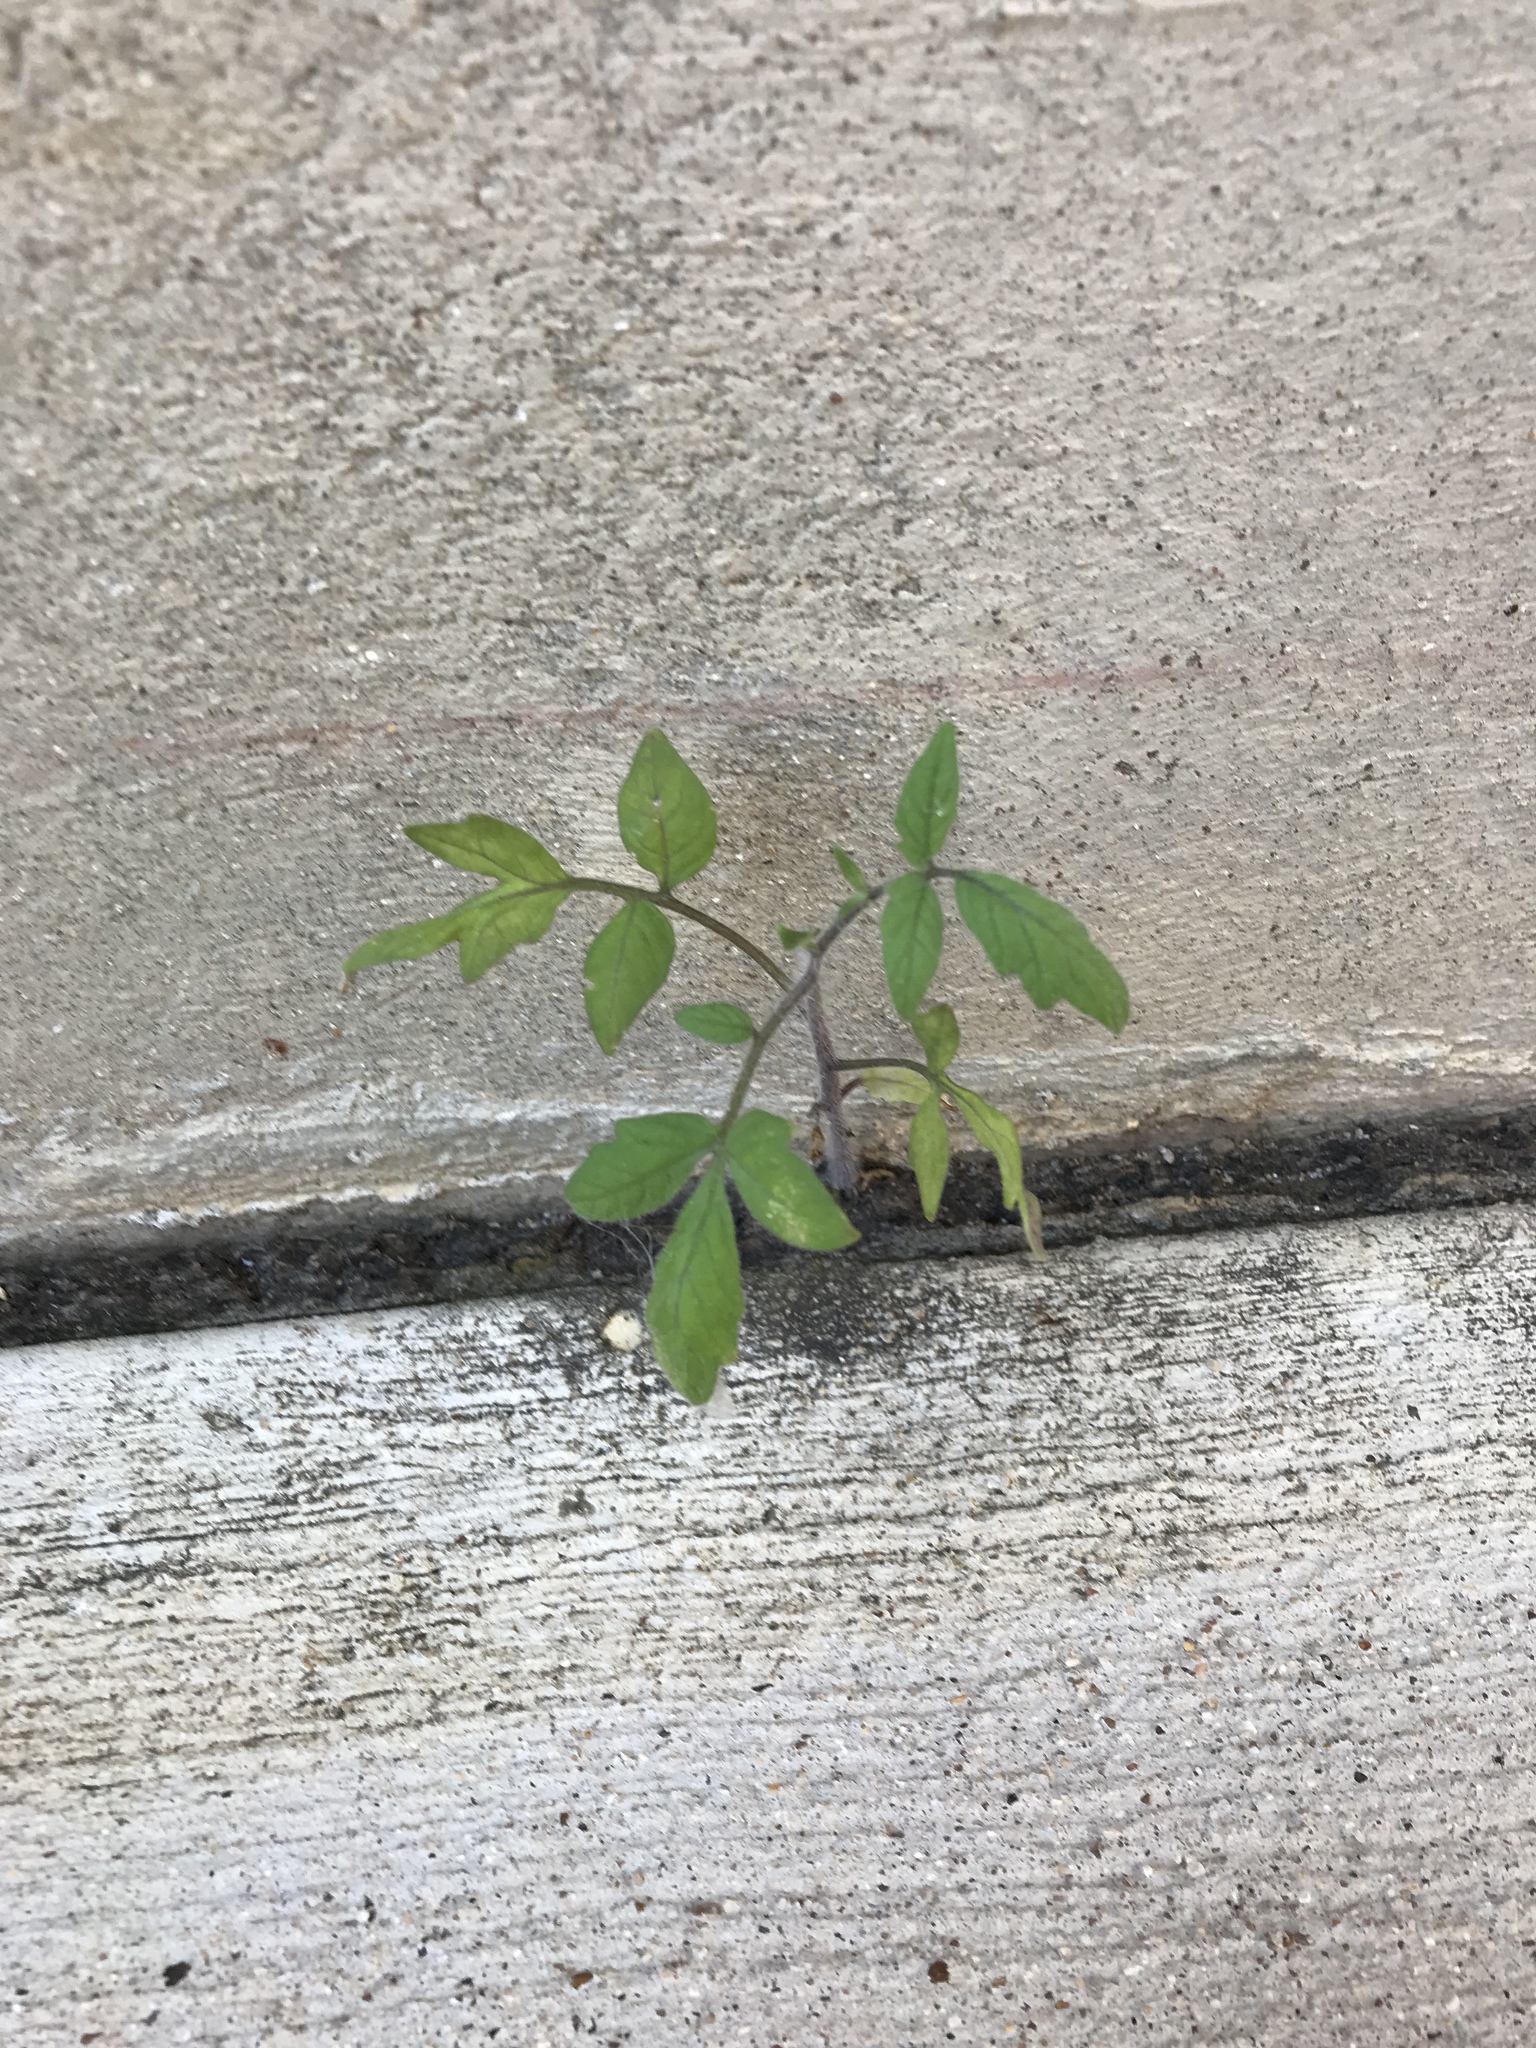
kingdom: Plantae
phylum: Tracheophyta
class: Magnoliopsida
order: Solanales
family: Solanaceae
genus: Solanum
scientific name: Solanum lycopersicum
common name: Garden tomato
